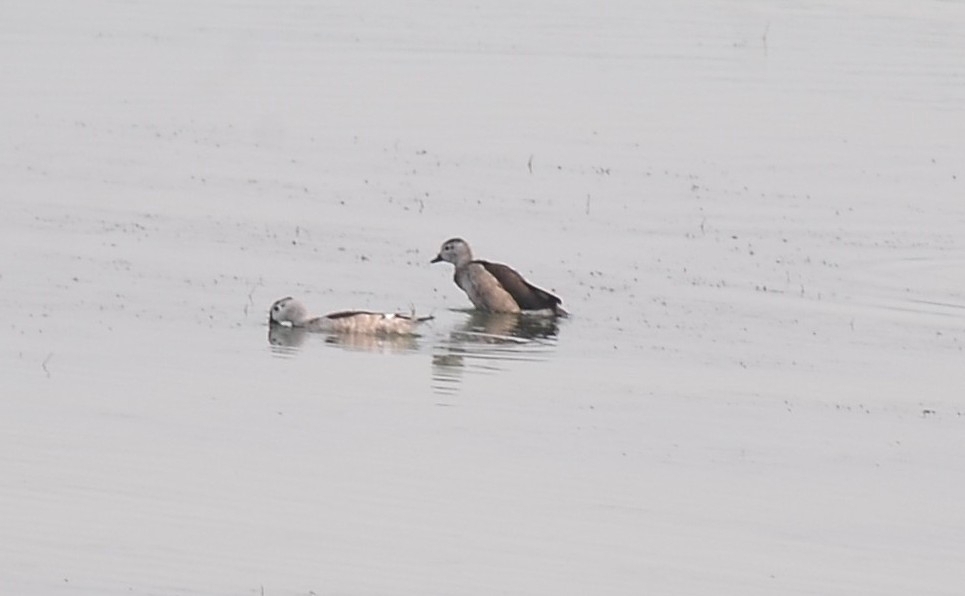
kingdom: Animalia
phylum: Chordata
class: Aves
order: Anseriformes
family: Anatidae
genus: Nettapus
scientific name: Nettapus coromandelianus
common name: Cotton pygmy-goose
